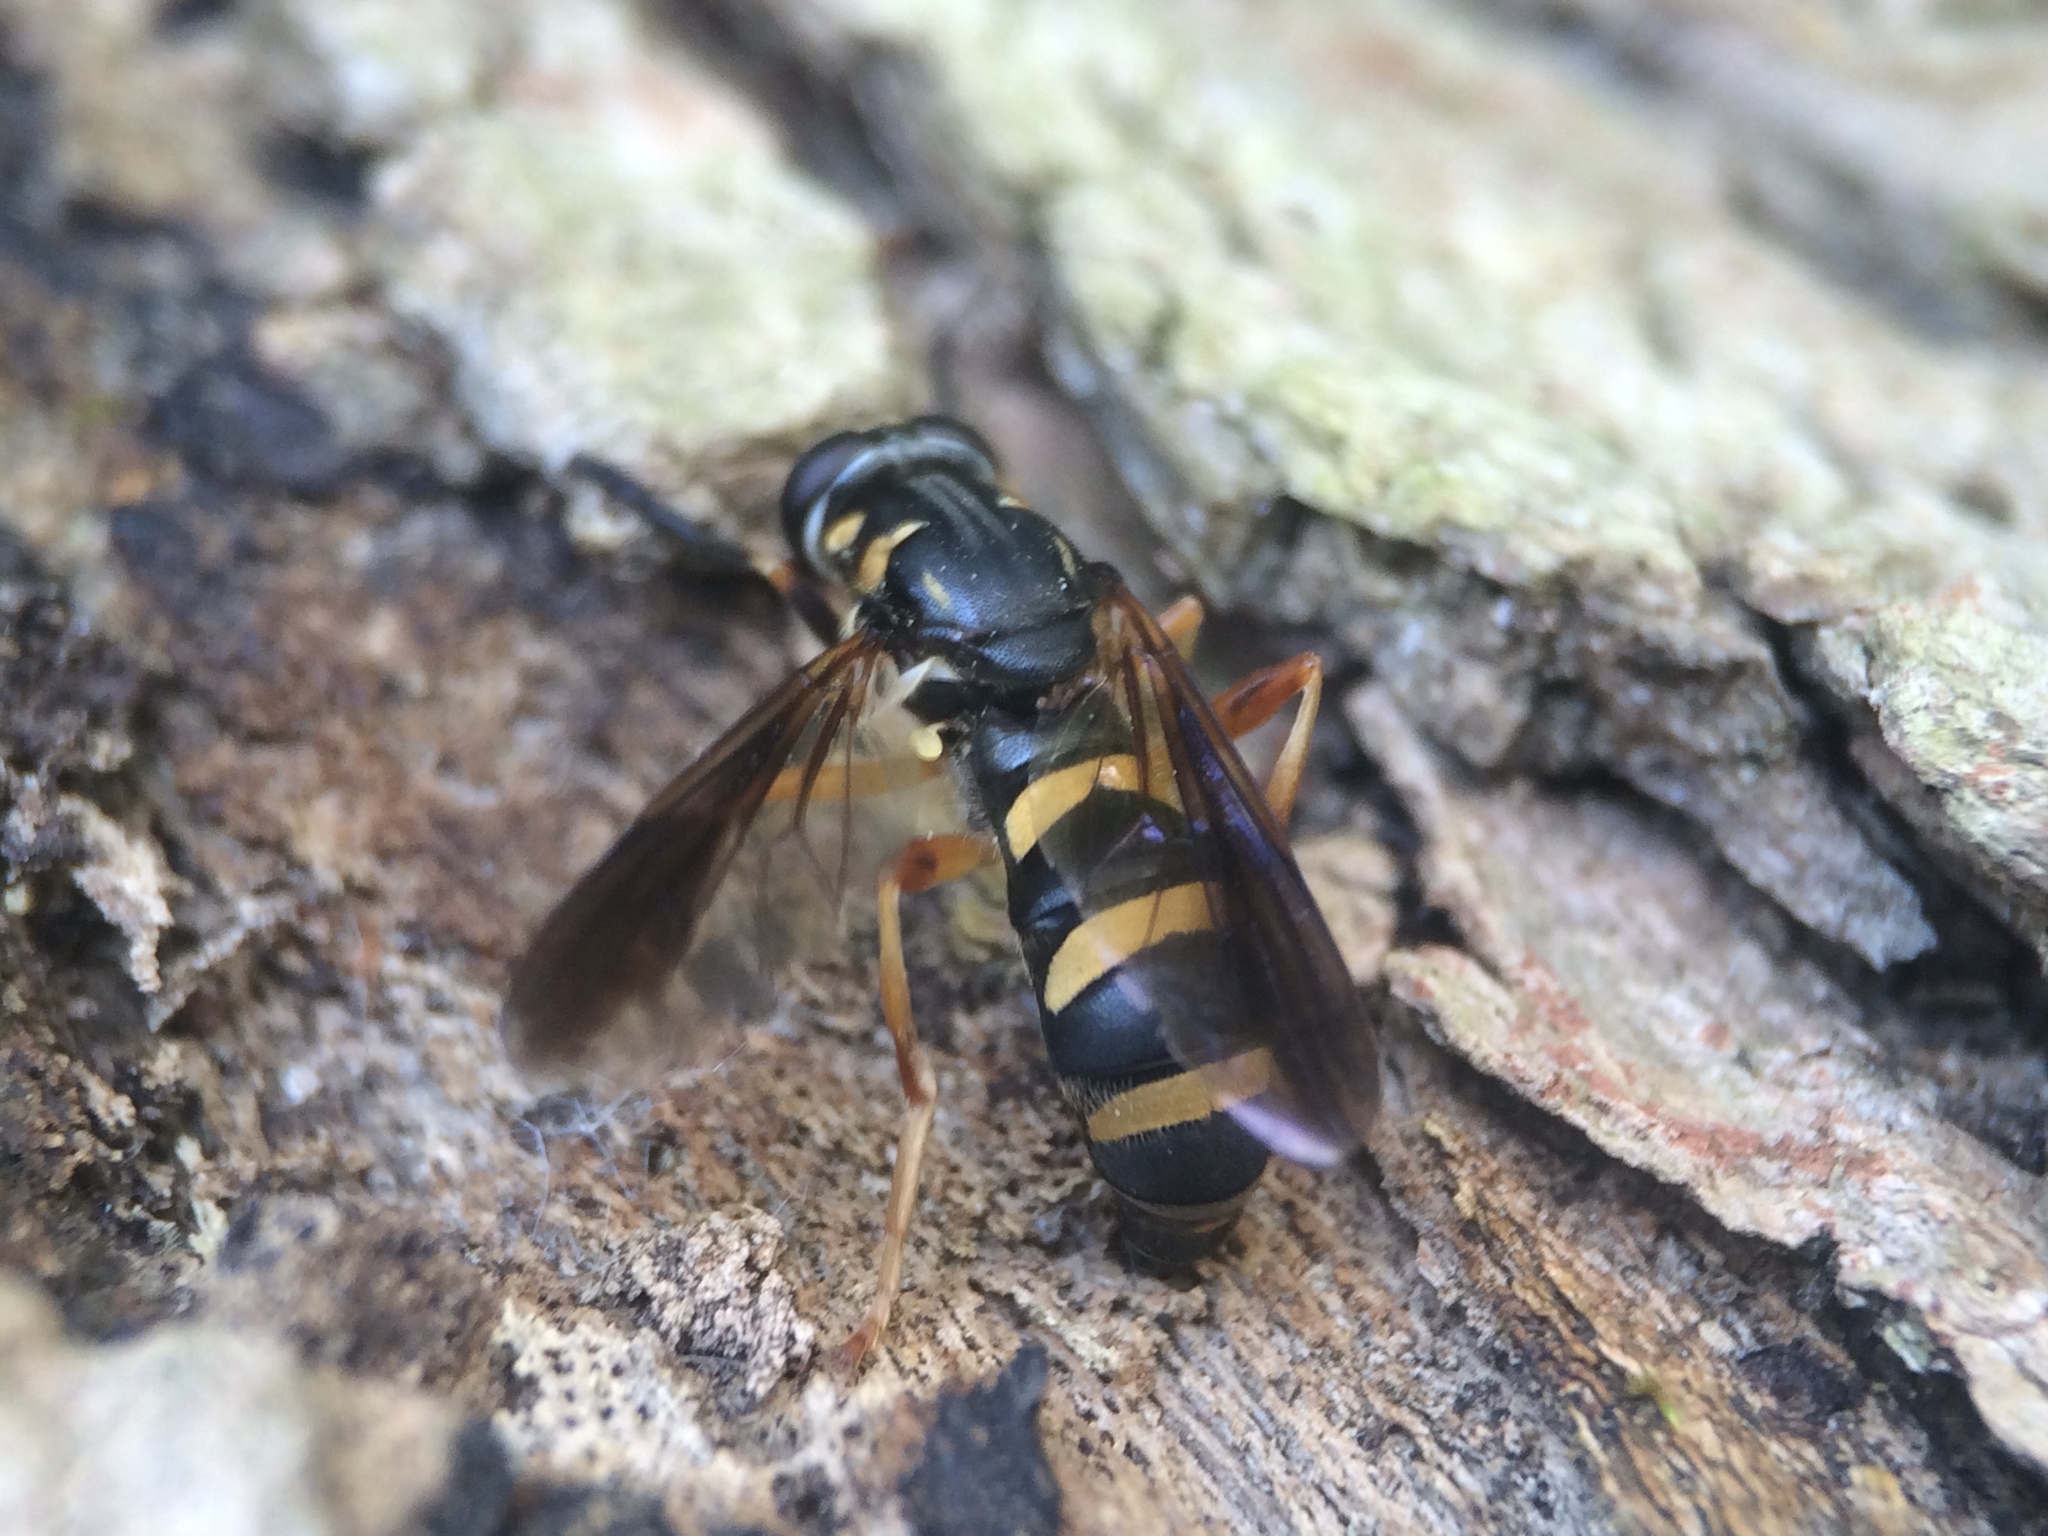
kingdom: Animalia
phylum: Arthropoda
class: Insecta
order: Diptera
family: Syrphidae
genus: Temnostoma
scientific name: Temnostoma trifasciatum
